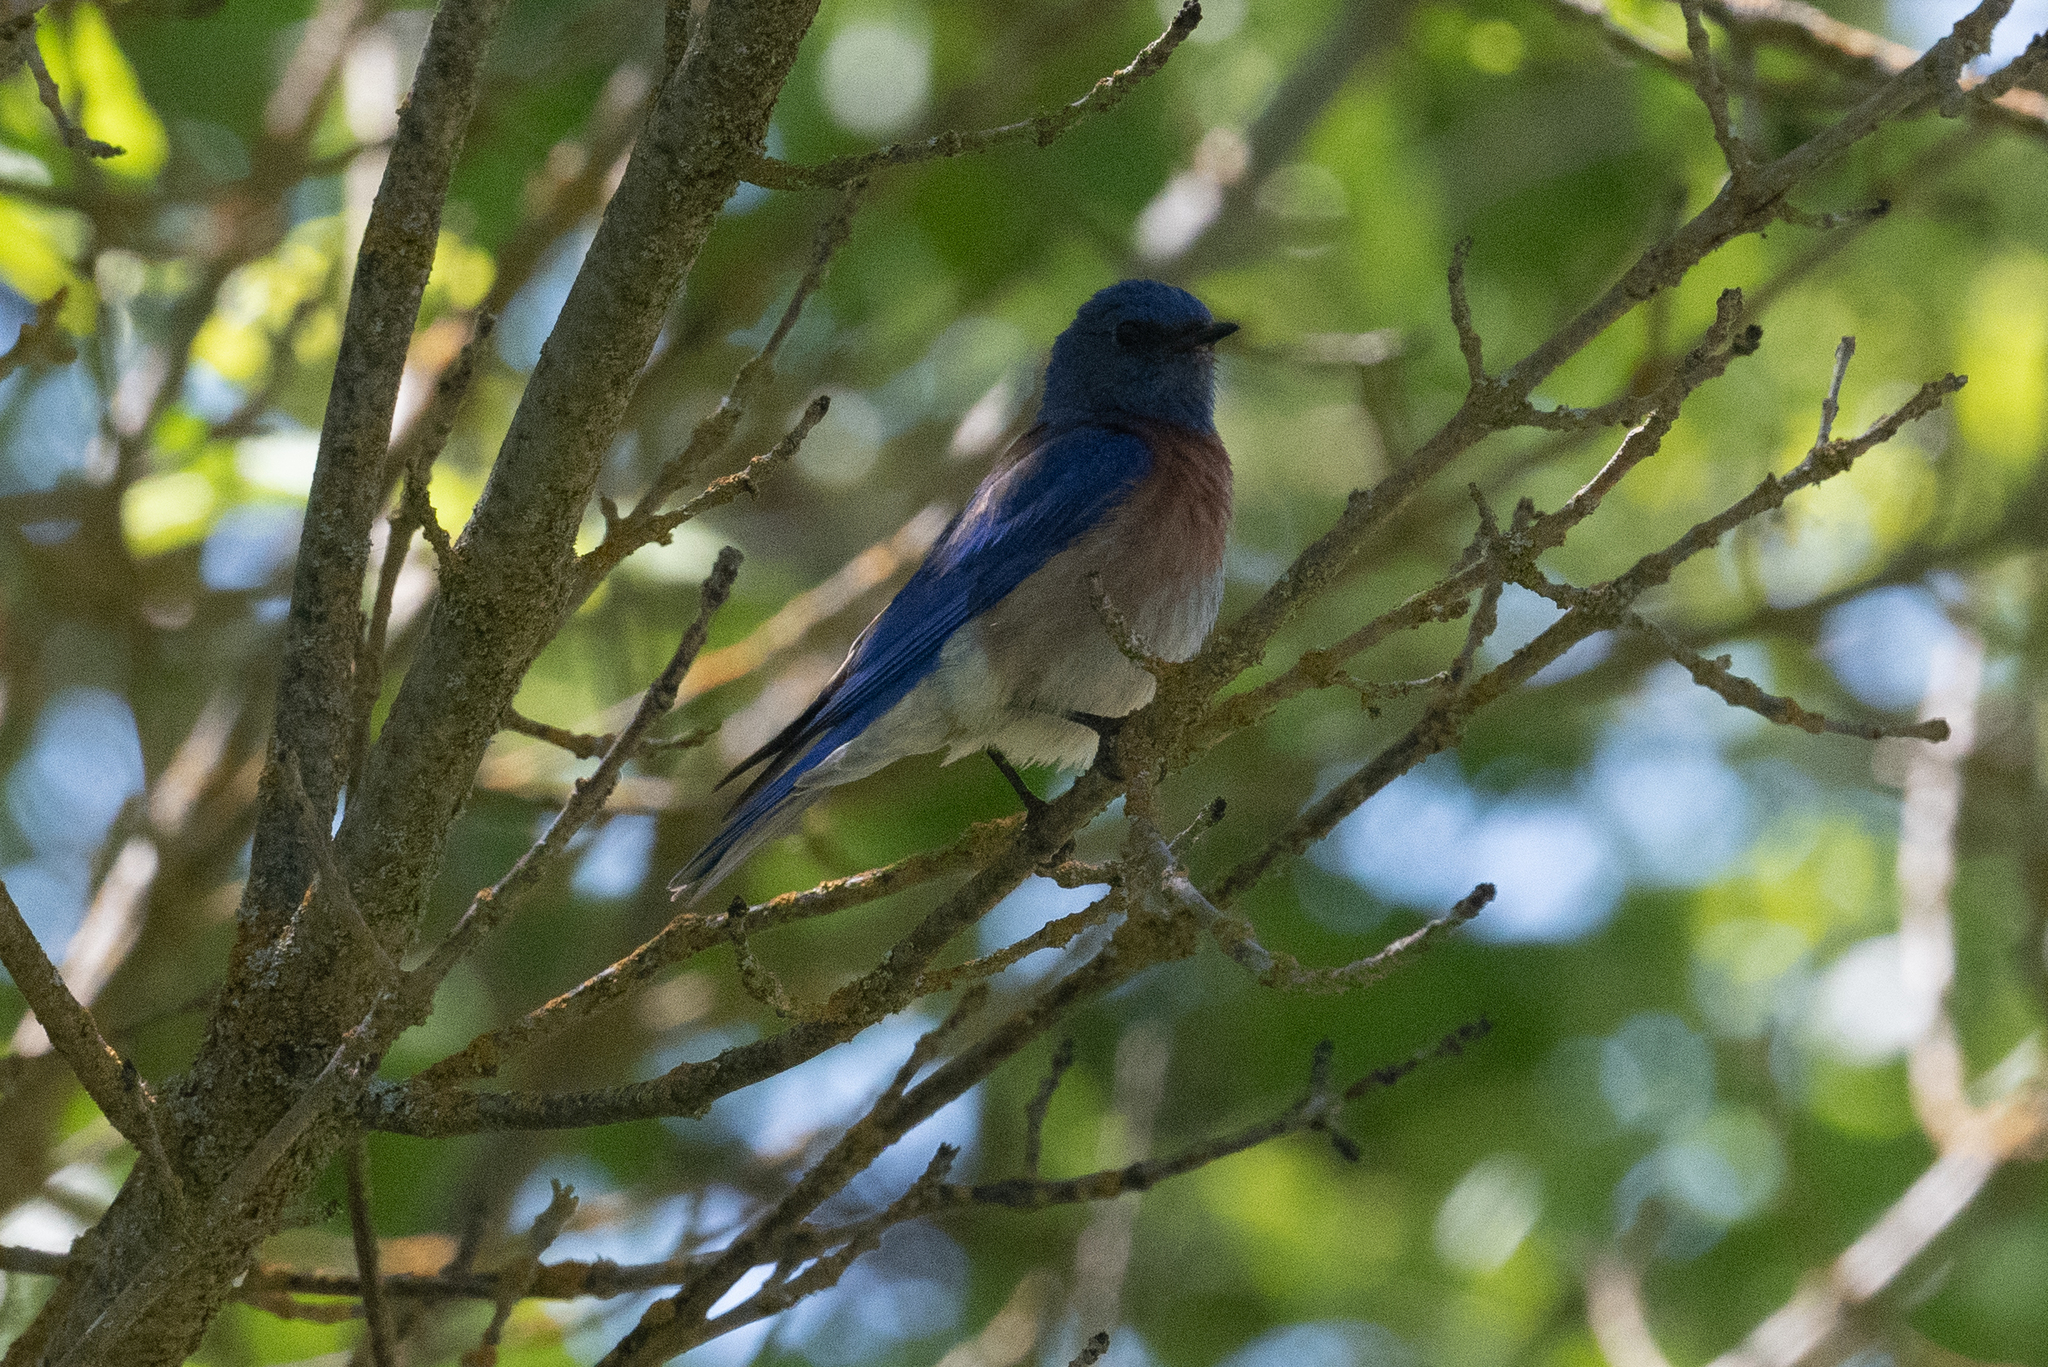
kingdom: Animalia
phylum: Chordata
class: Aves
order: Passeriformes
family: Turdidae
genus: Sialia
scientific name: Sialia mexicana
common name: Western bluebird
